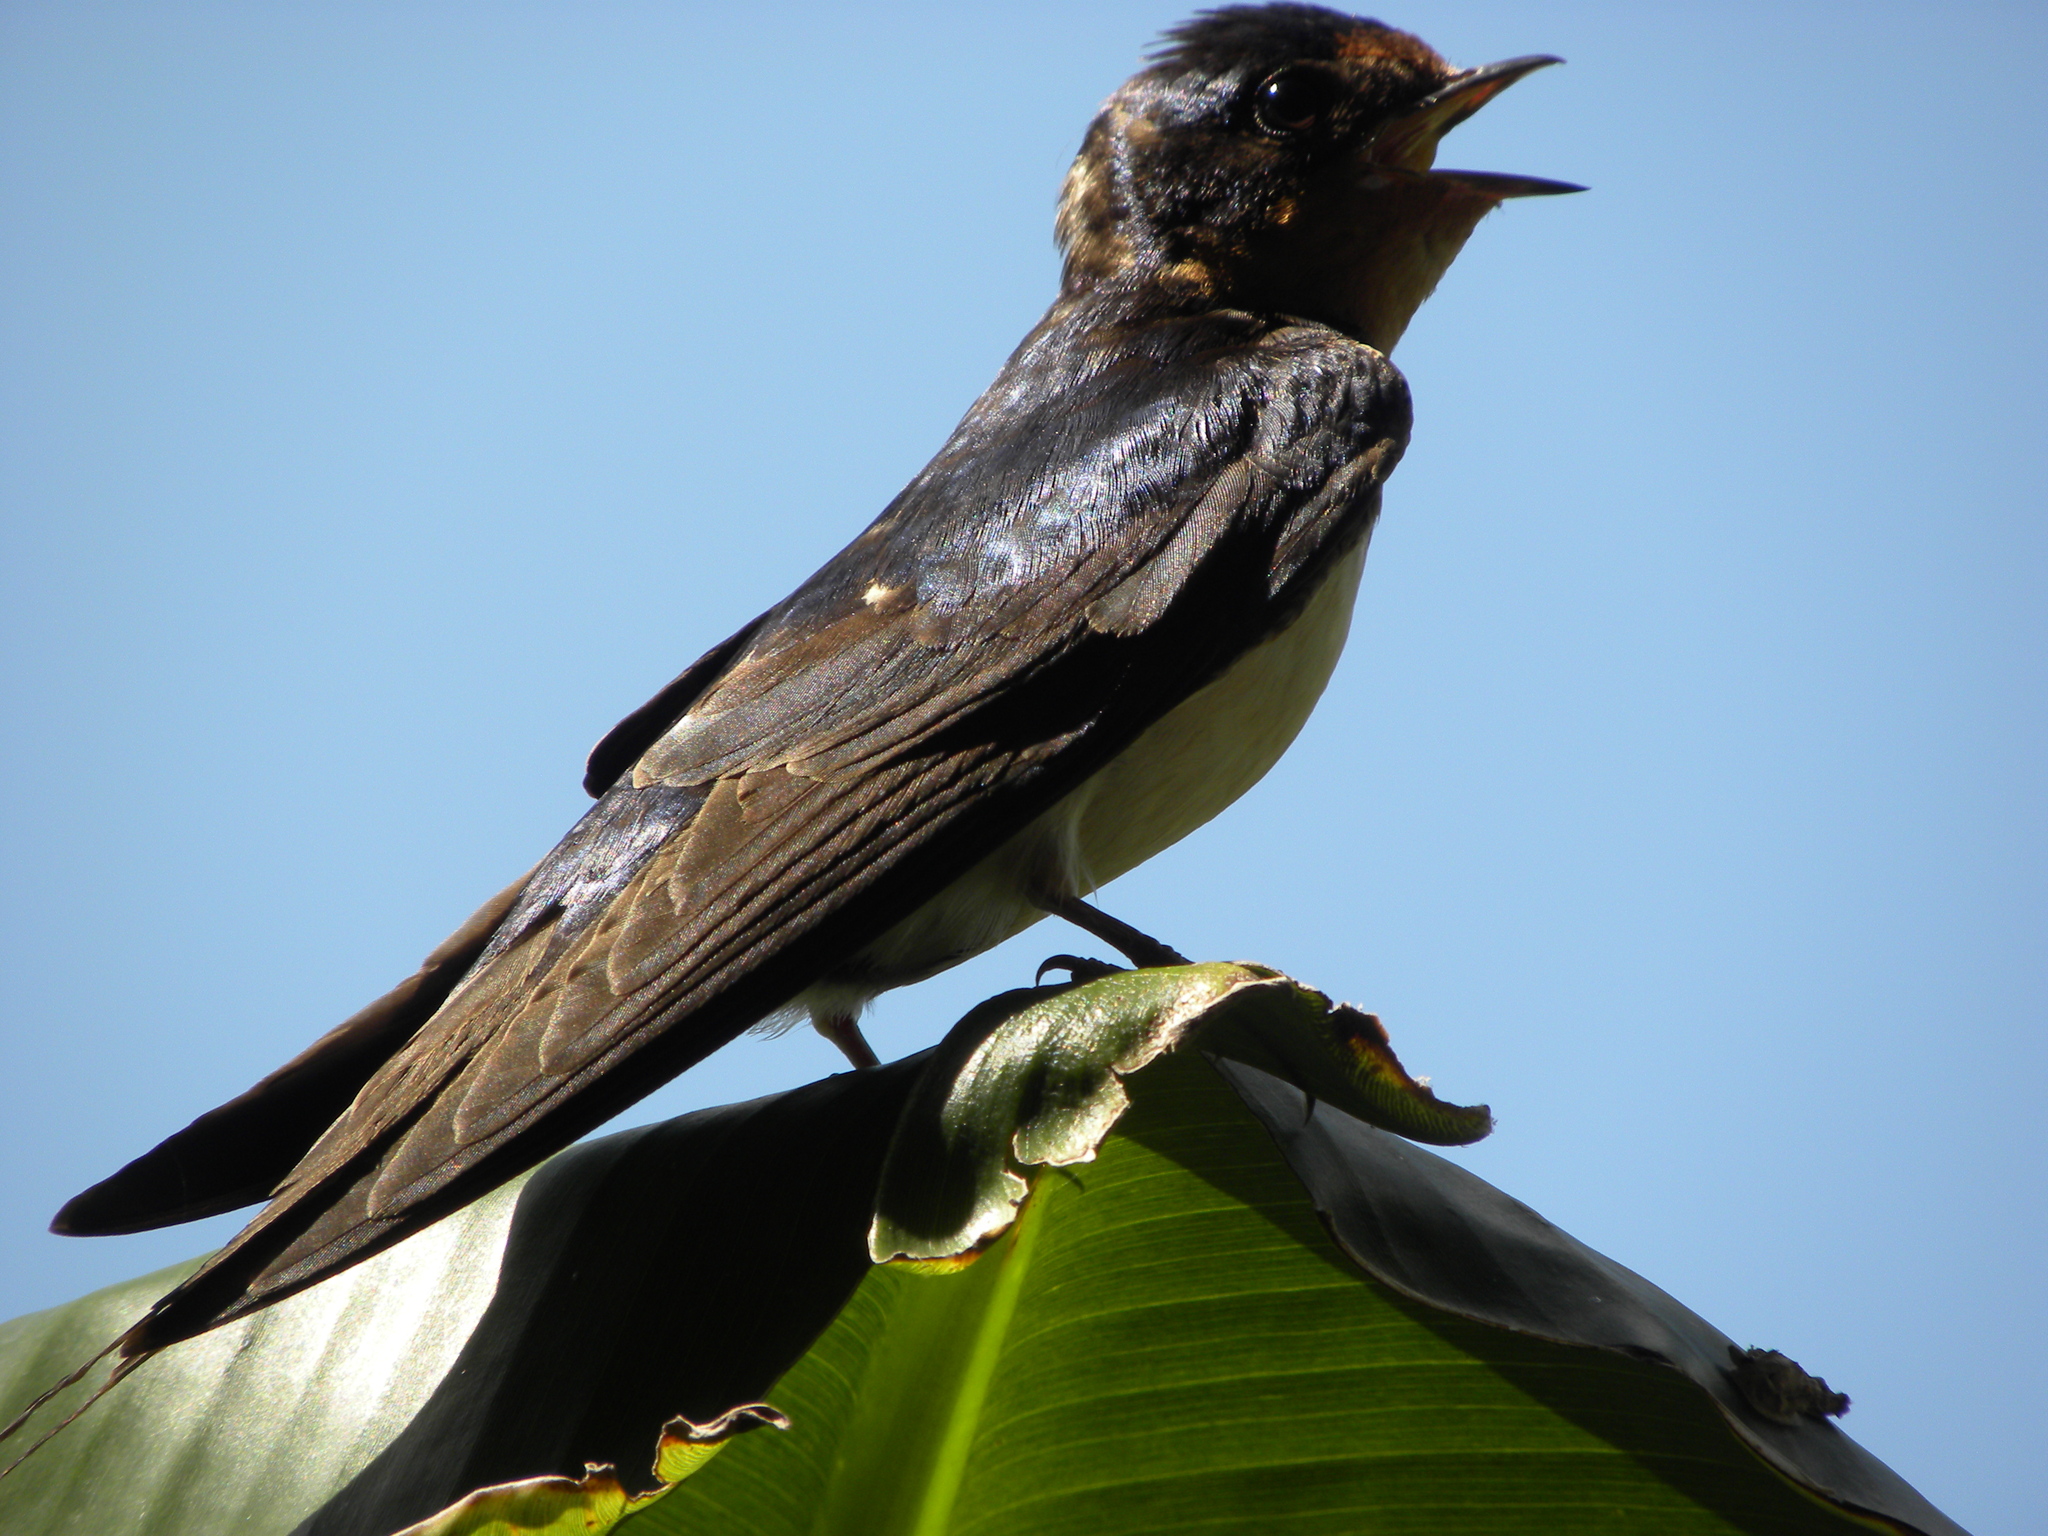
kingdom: Animalia
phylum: Chordata
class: Aves
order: Passeriformes
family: Hirundinidae
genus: Hirundo
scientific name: Hirundo rustica
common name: Barn swallow
